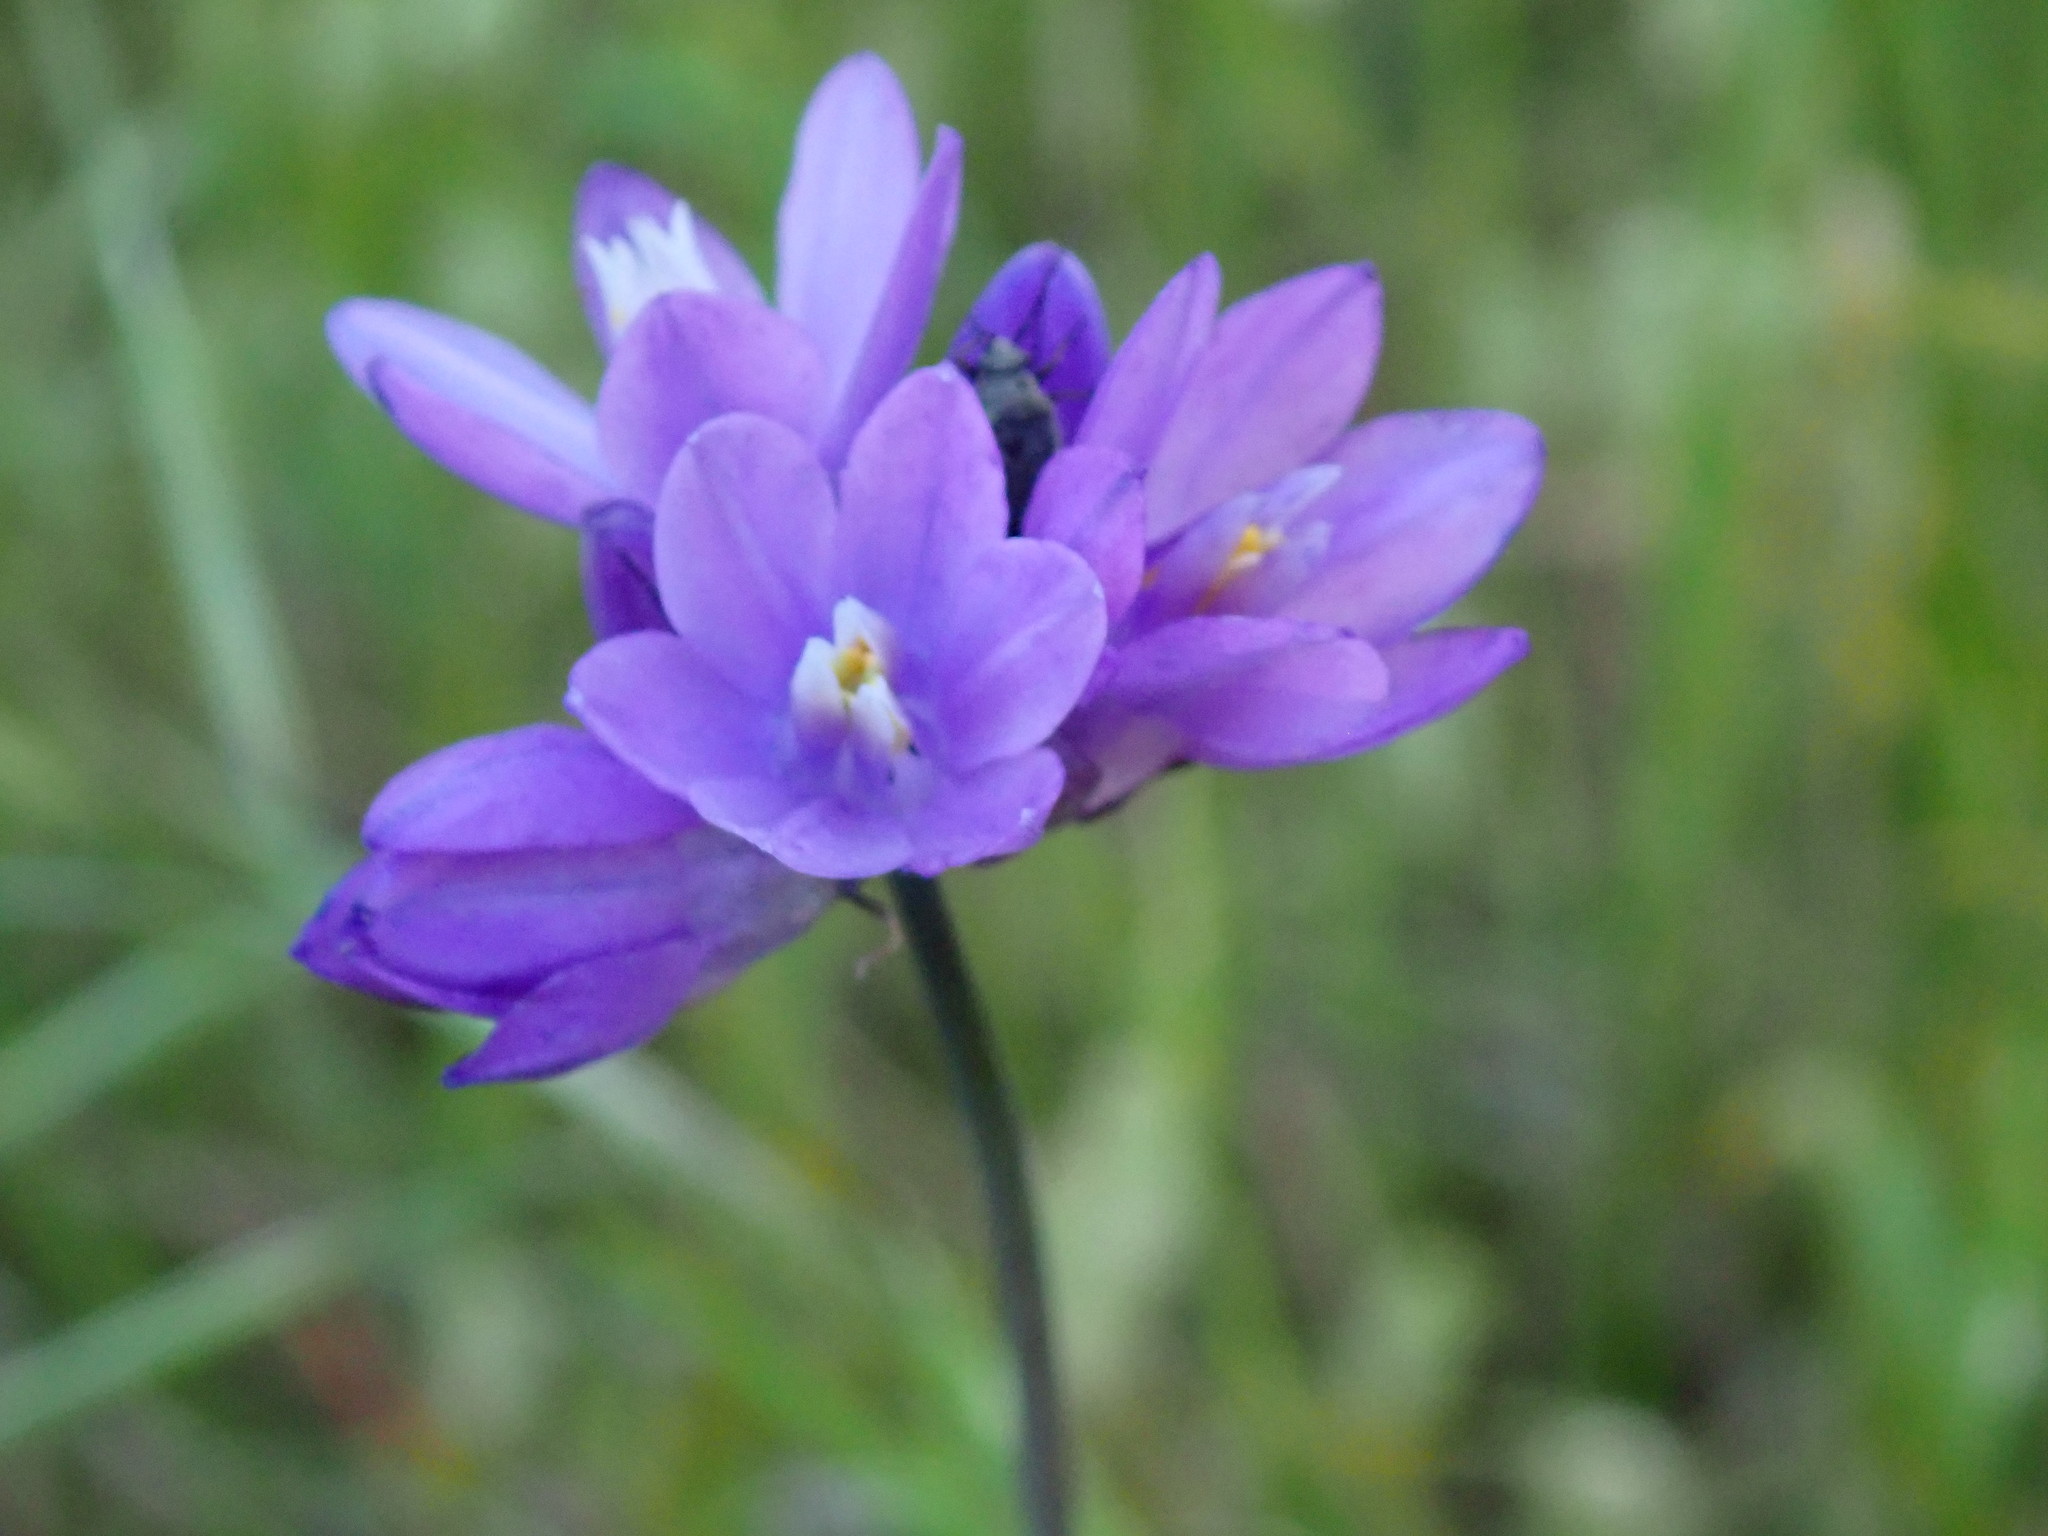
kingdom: Plantae
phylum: Tracheophyta
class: Liliopsida
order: Asparagales
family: Asparagaceae
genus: Dipterostemon
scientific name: Dipterostemon capitatus
